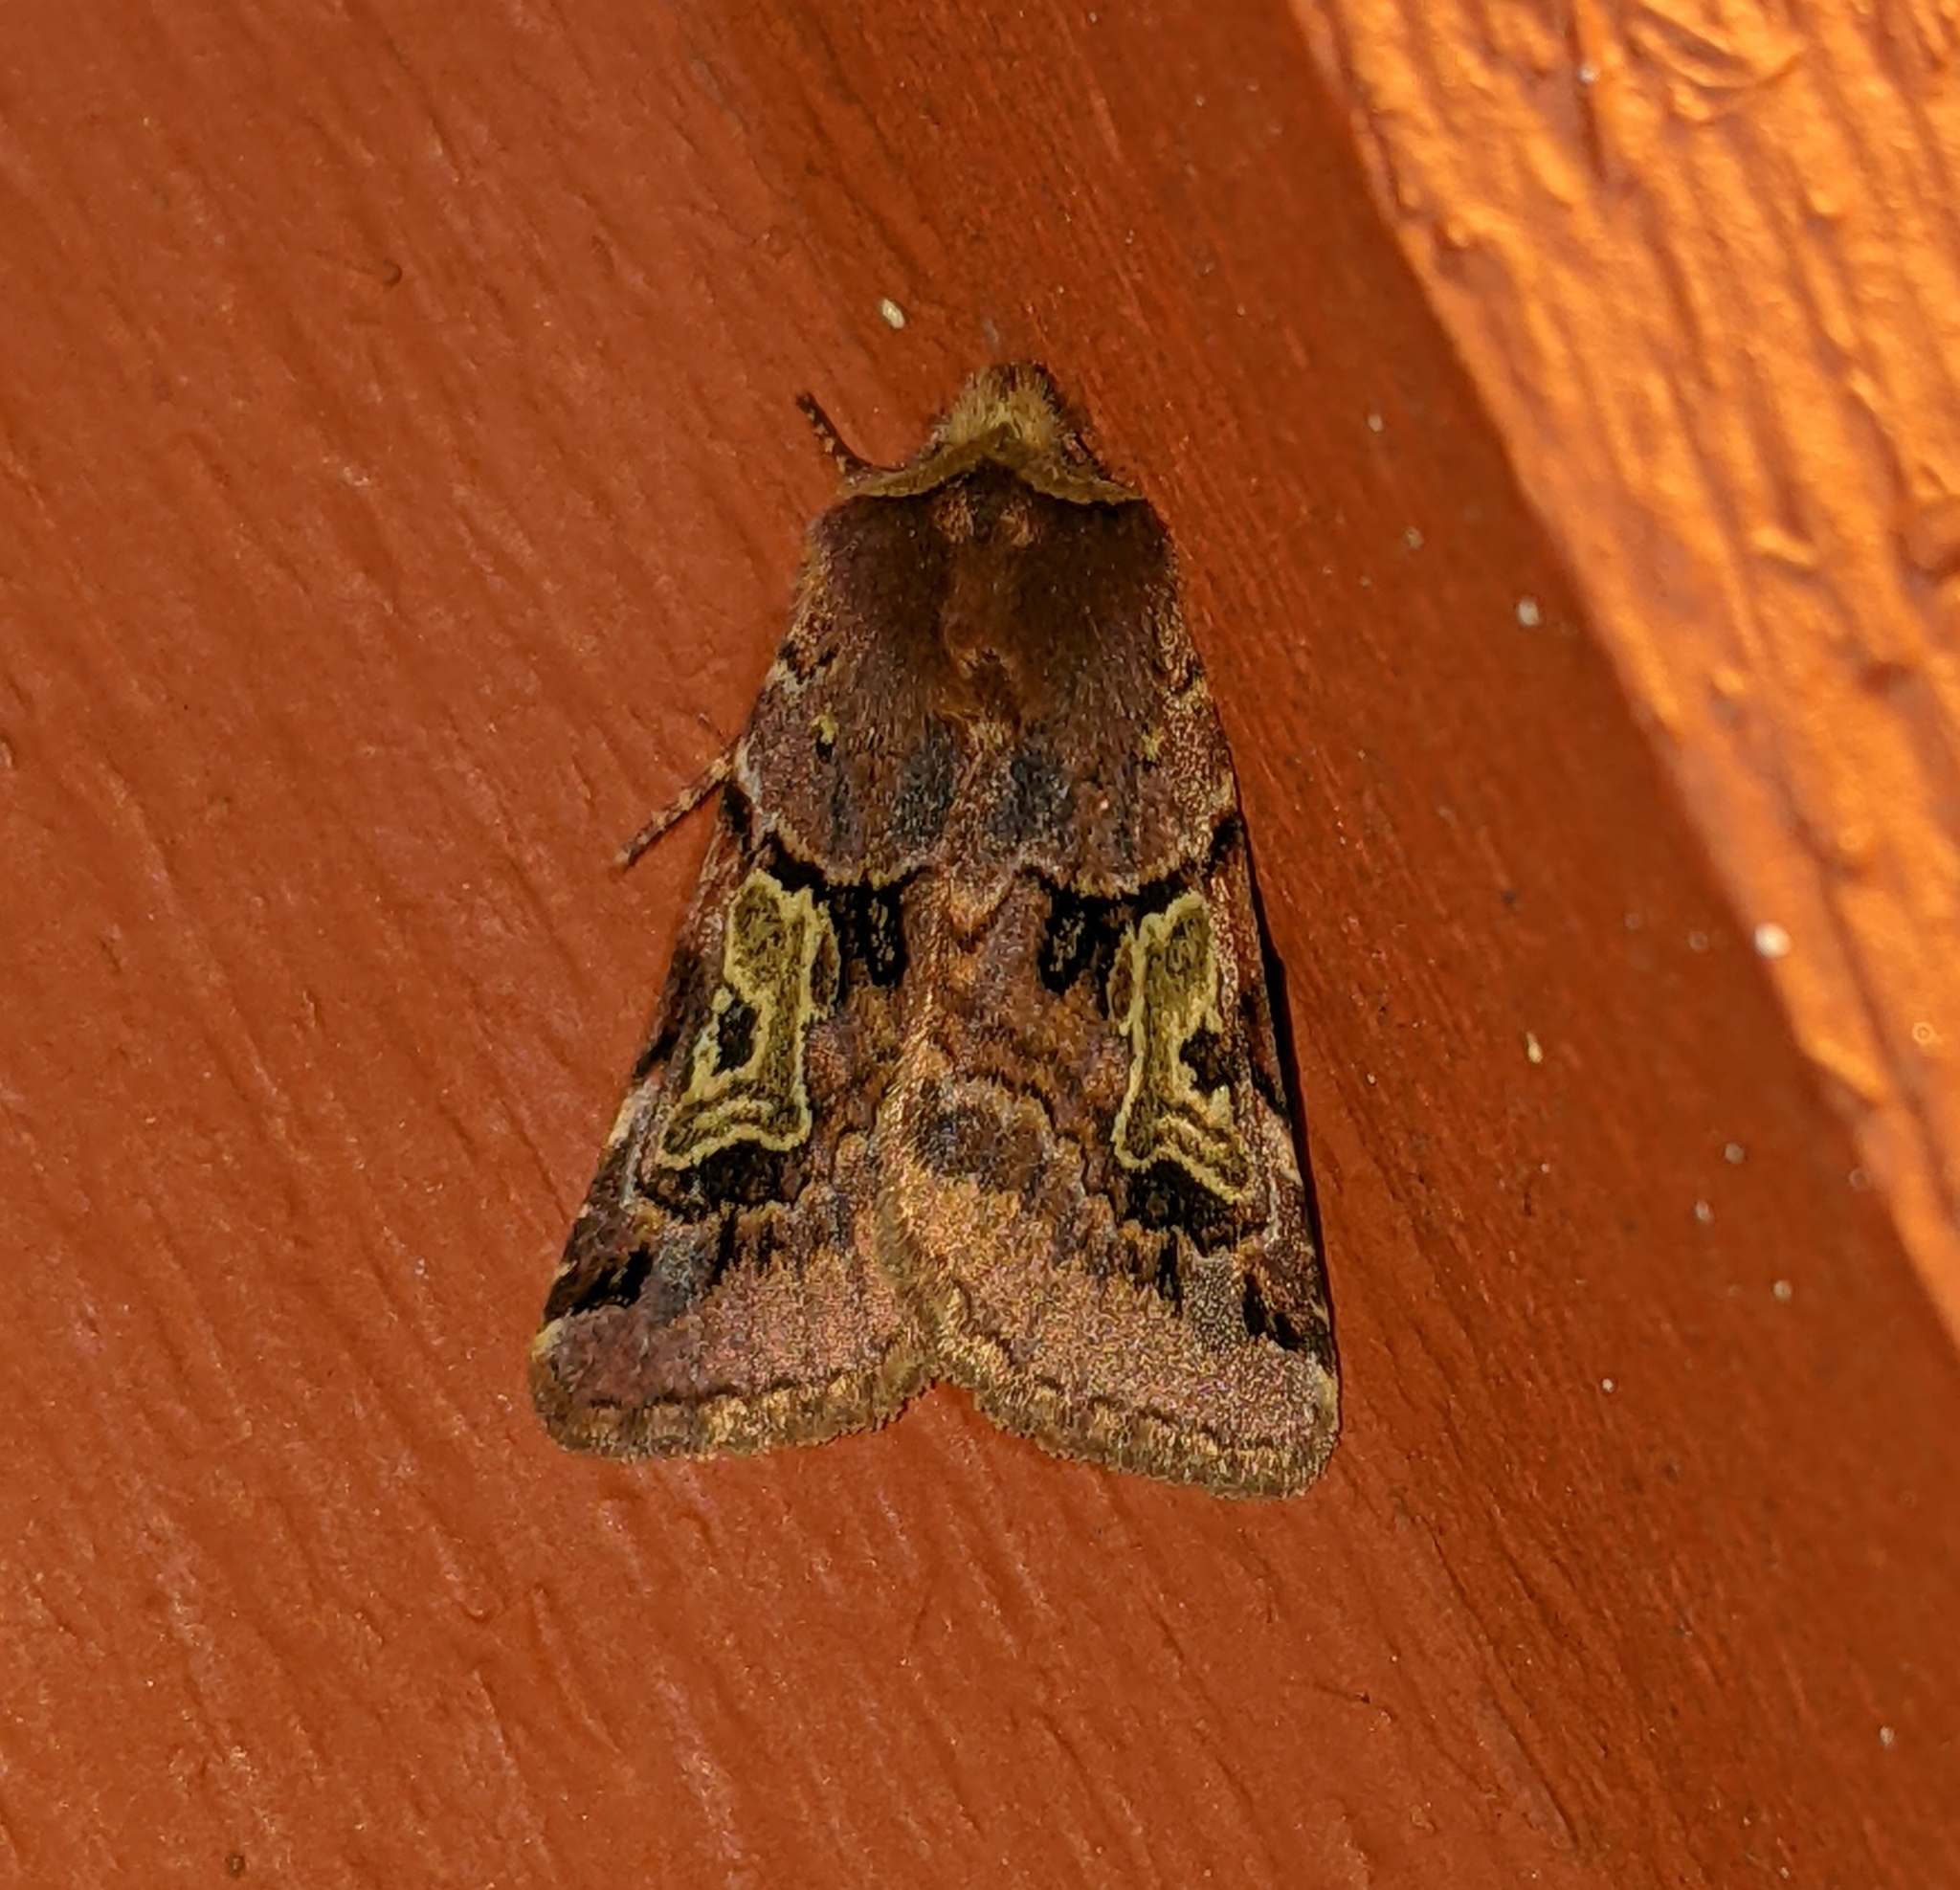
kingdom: Animalia
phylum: Arthropoda
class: Insecta
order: Lepidoptera
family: Noctuidae
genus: Cerastis
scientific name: Cerastis enigmatica
